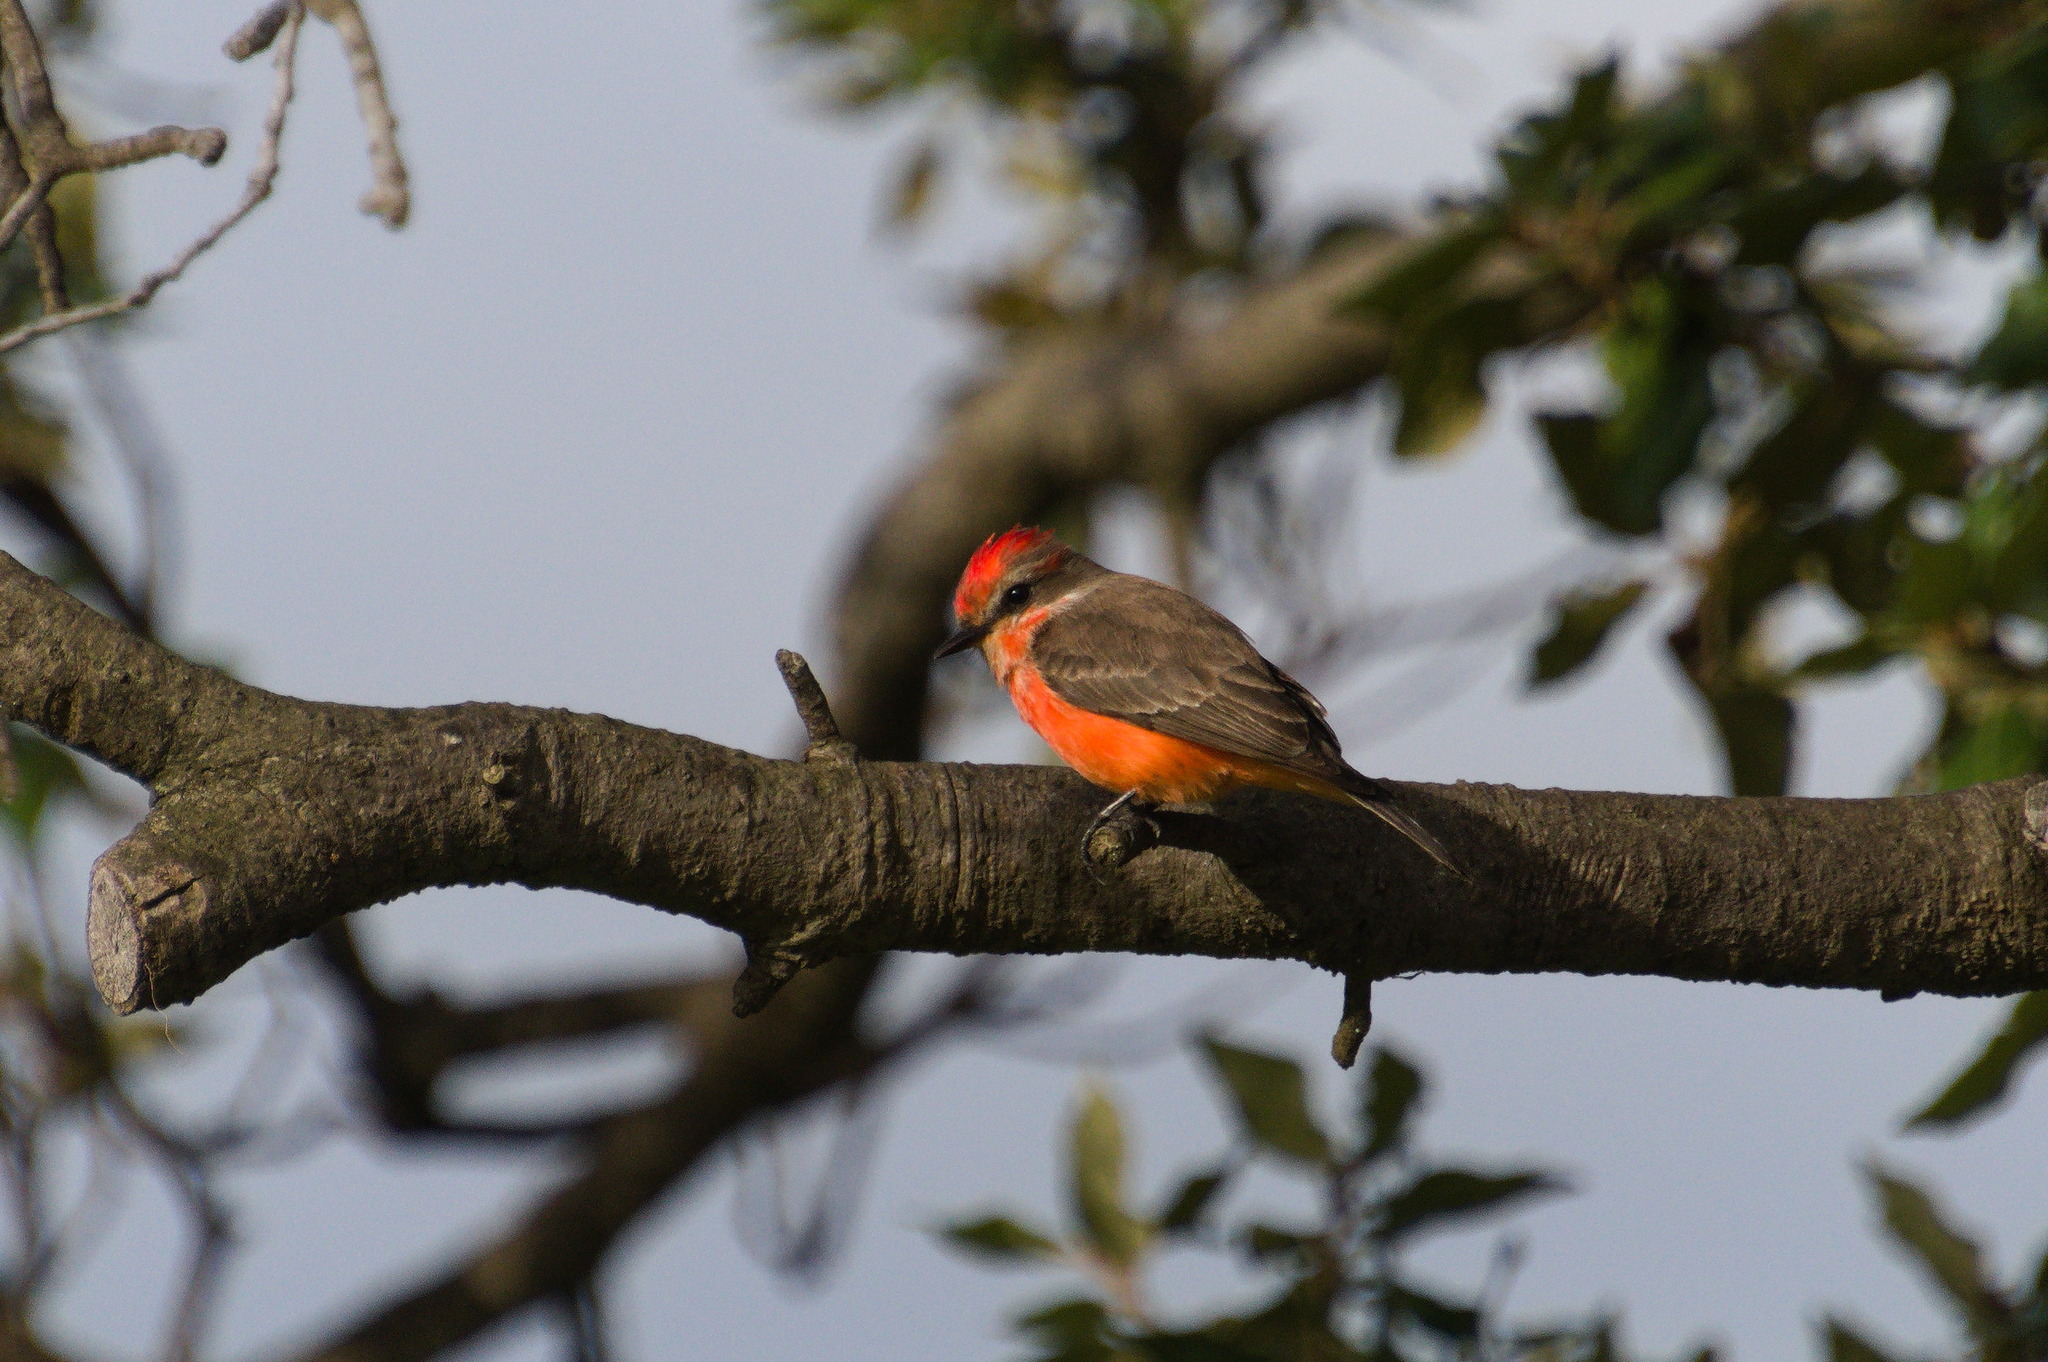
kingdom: Animalia
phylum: Chordata
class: Aves
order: Passeriformes
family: Tyrannidae
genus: Pyrocephalus
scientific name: Pyrocephalus rubinus
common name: Vermilion flycatcher
